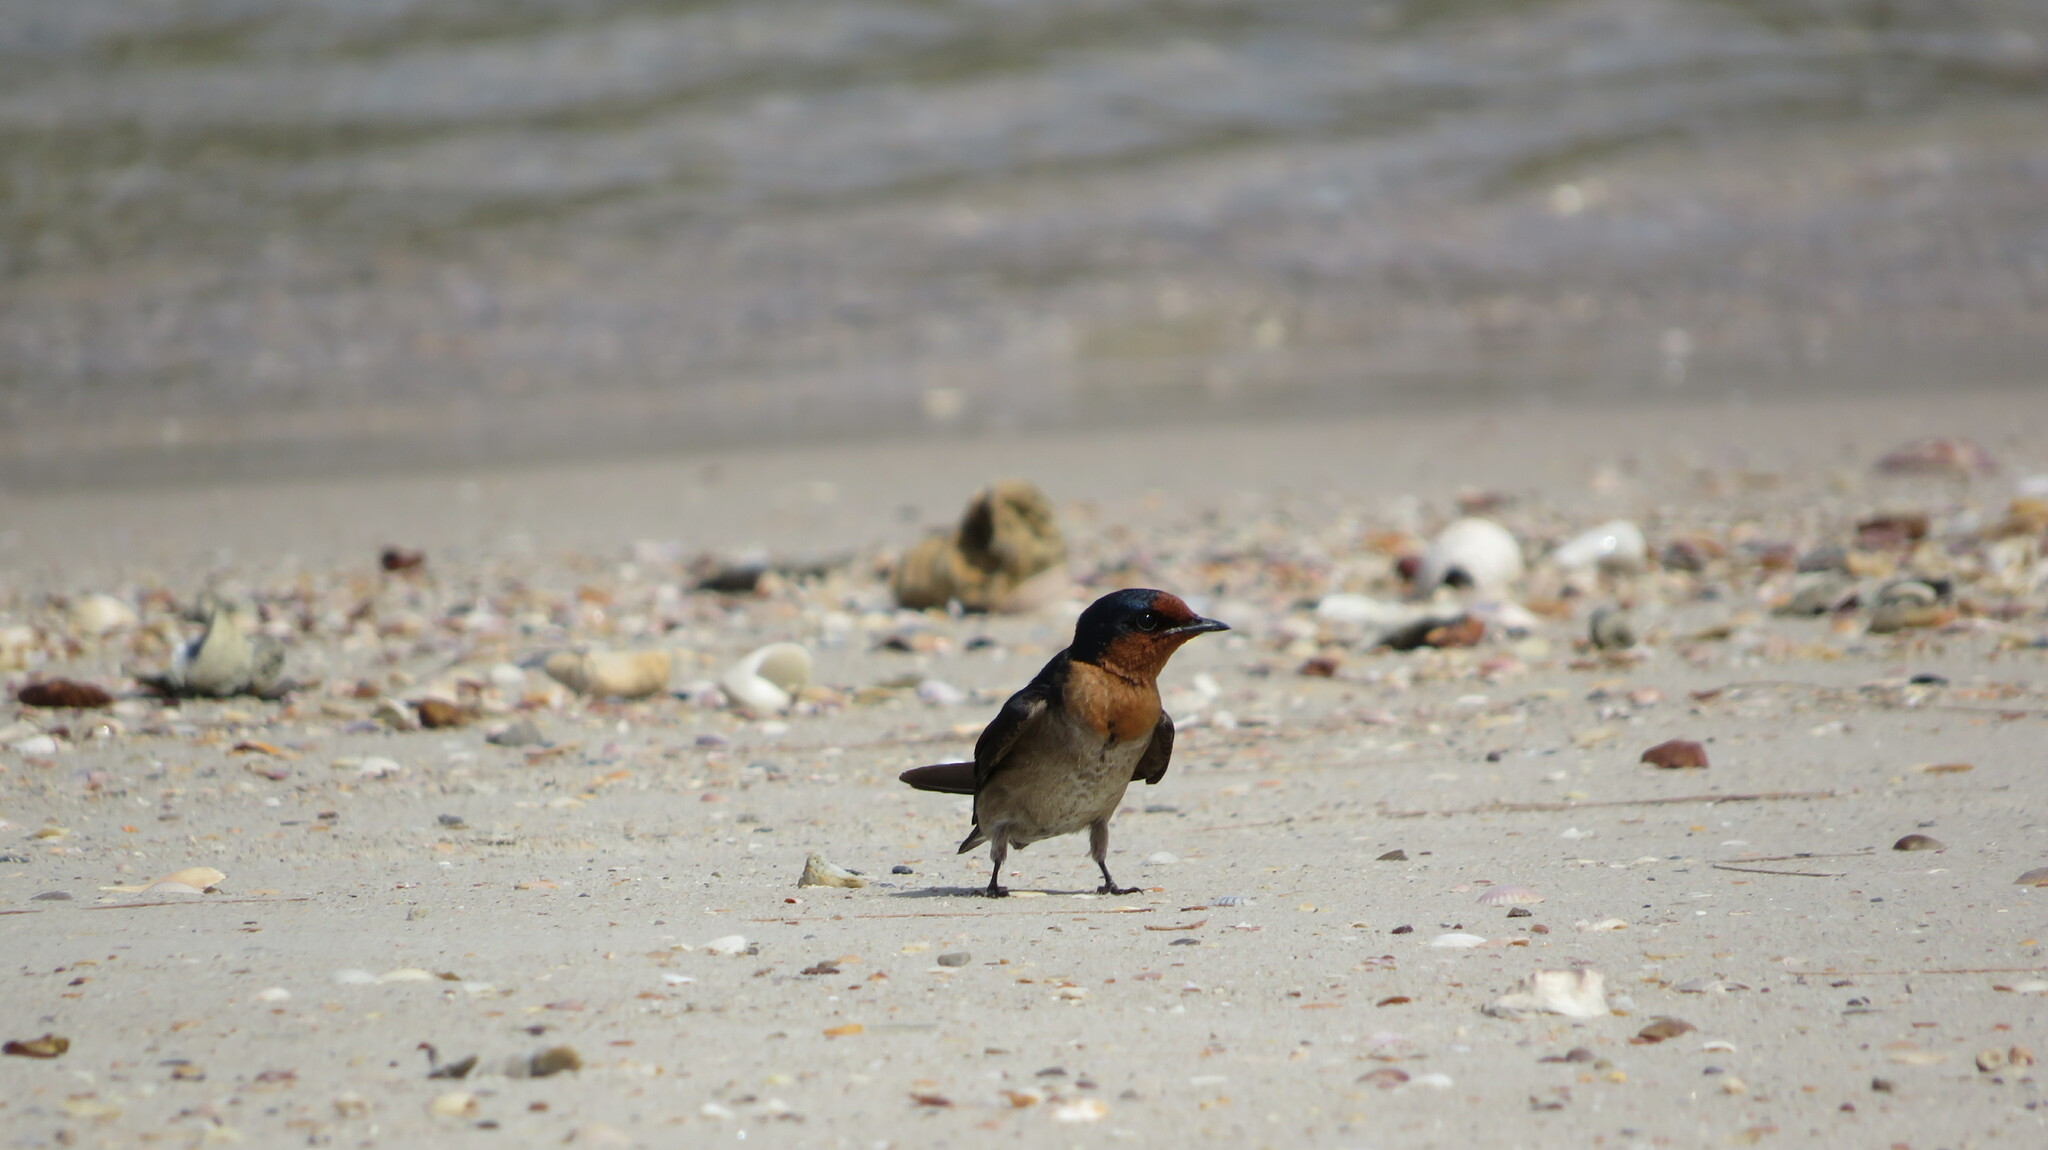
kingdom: Animalia
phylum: Chordata
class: Aves
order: Passeriformes
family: Hirundinidae
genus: Hirundo
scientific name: Hirundo tahitica
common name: Pacific swallow
